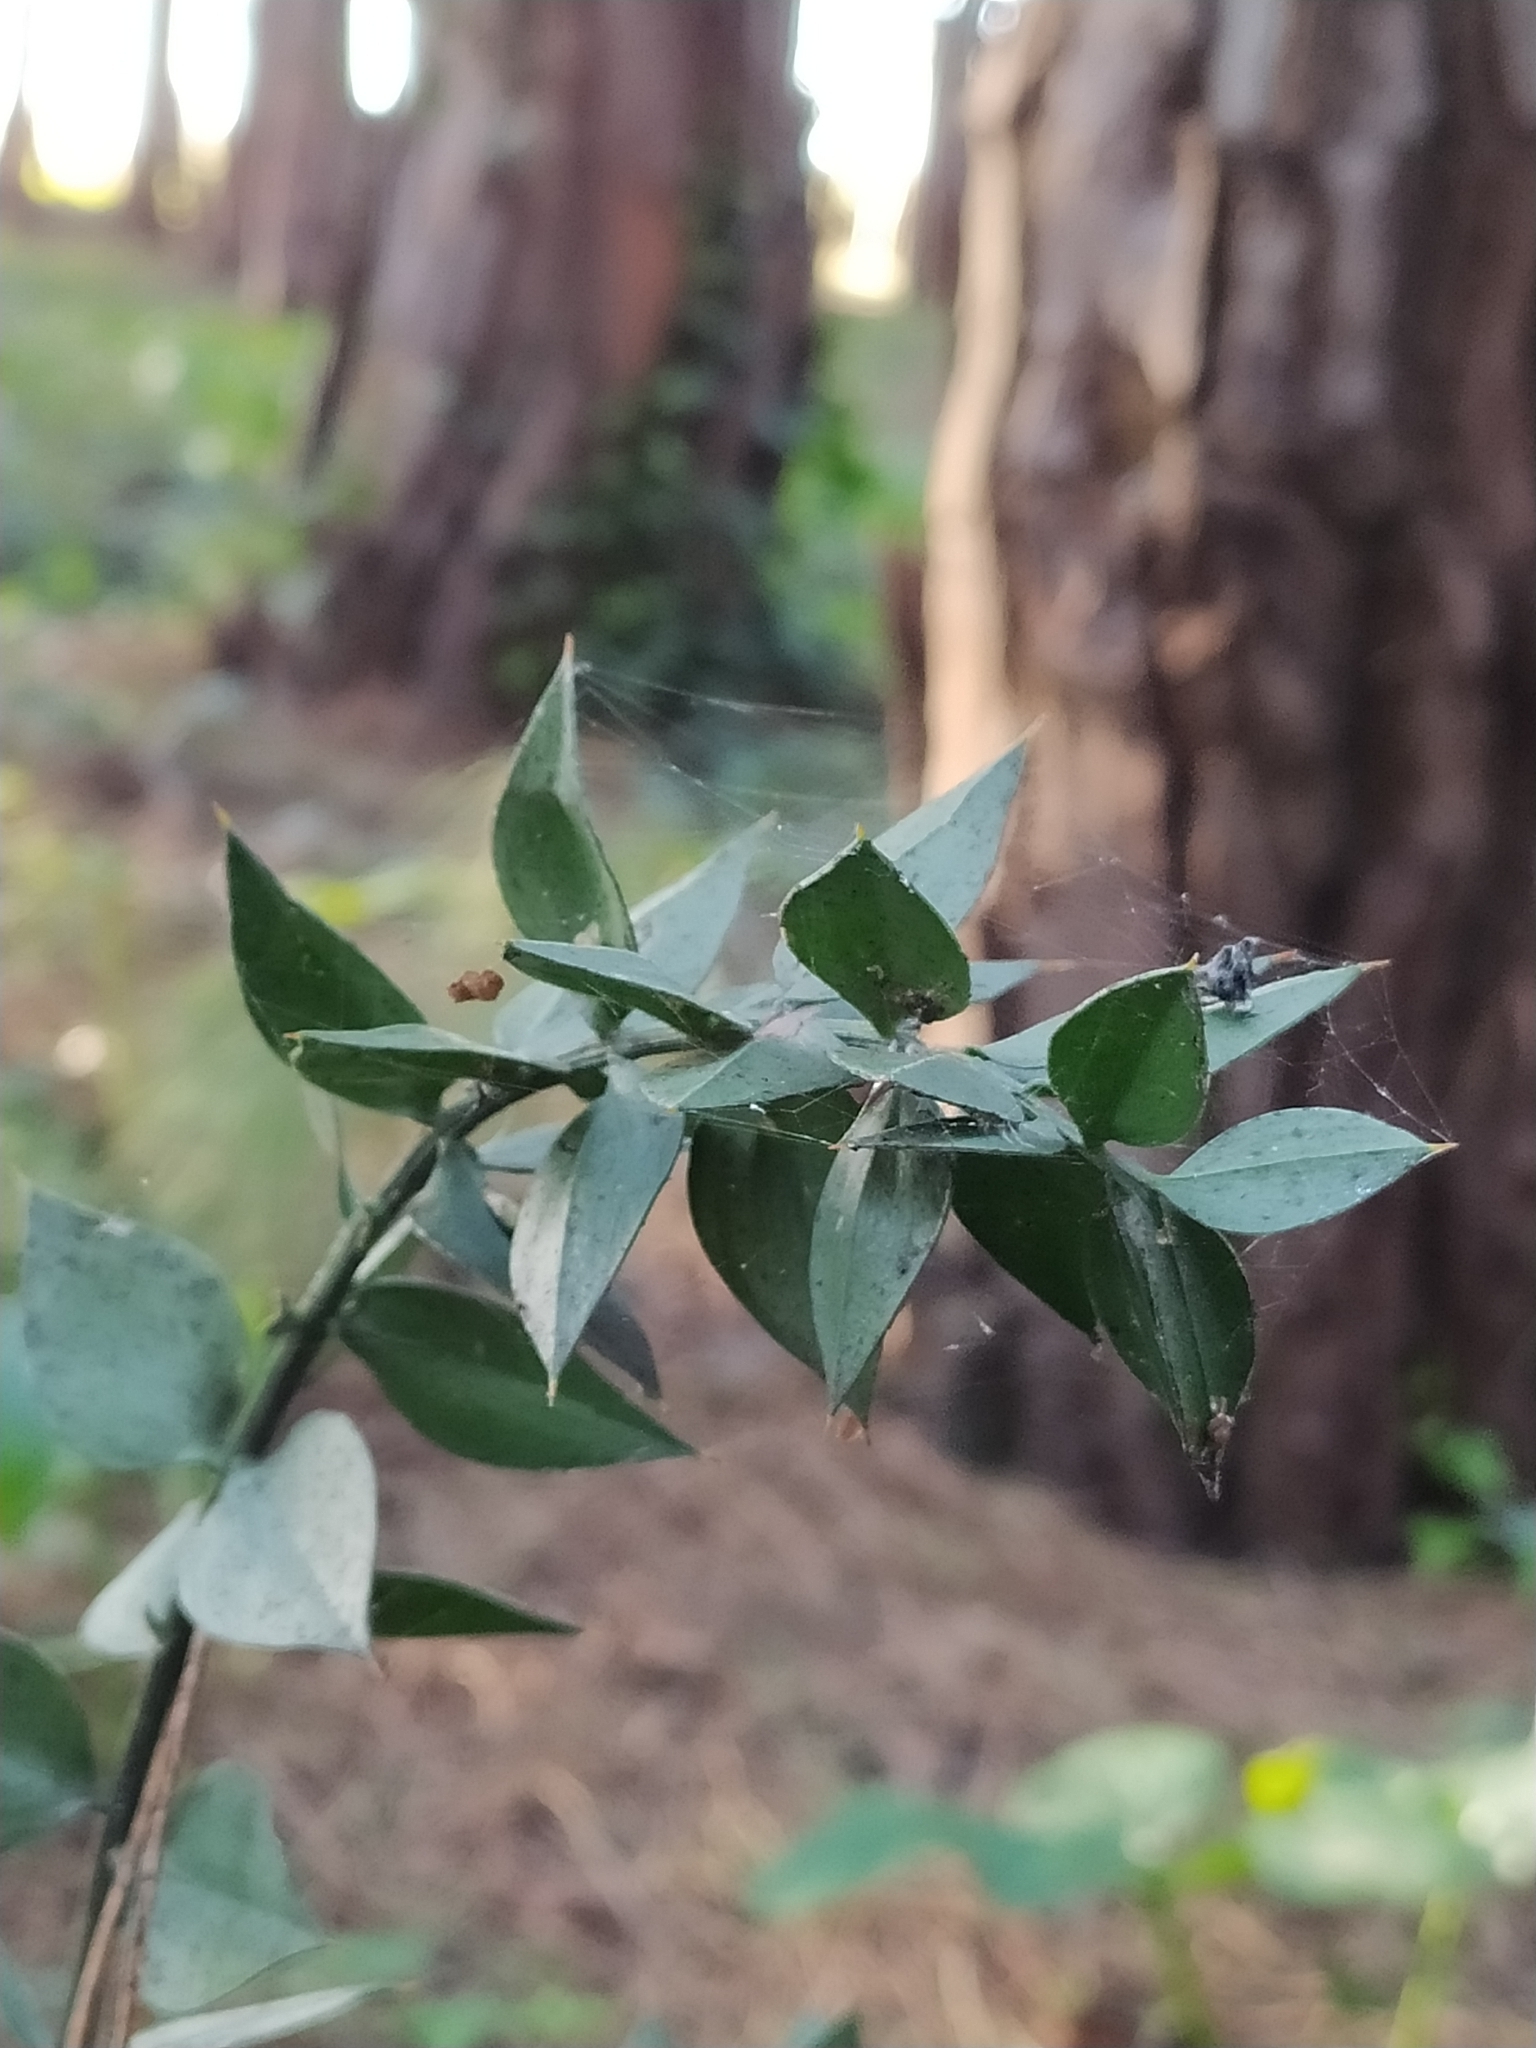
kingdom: Plantae
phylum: Tracheophyta
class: Liliopsida
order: Asparagales
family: Asparagaceae
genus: Ruscus
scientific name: Ruscus aculeatus
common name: Butcher's-broom
